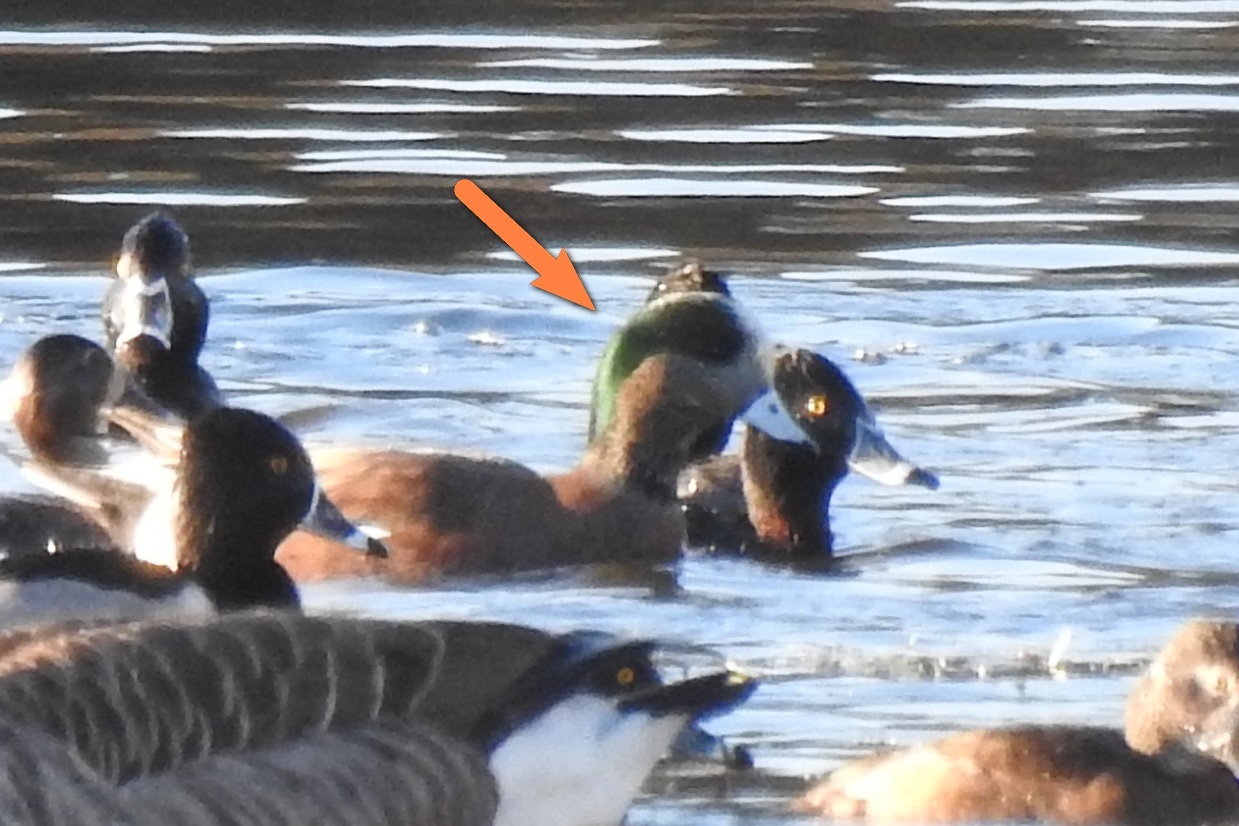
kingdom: Animalia
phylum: Chordata
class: Aves
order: Anseriformes
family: Anatidae
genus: Mareca
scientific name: Mareca americana
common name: American wigeon
